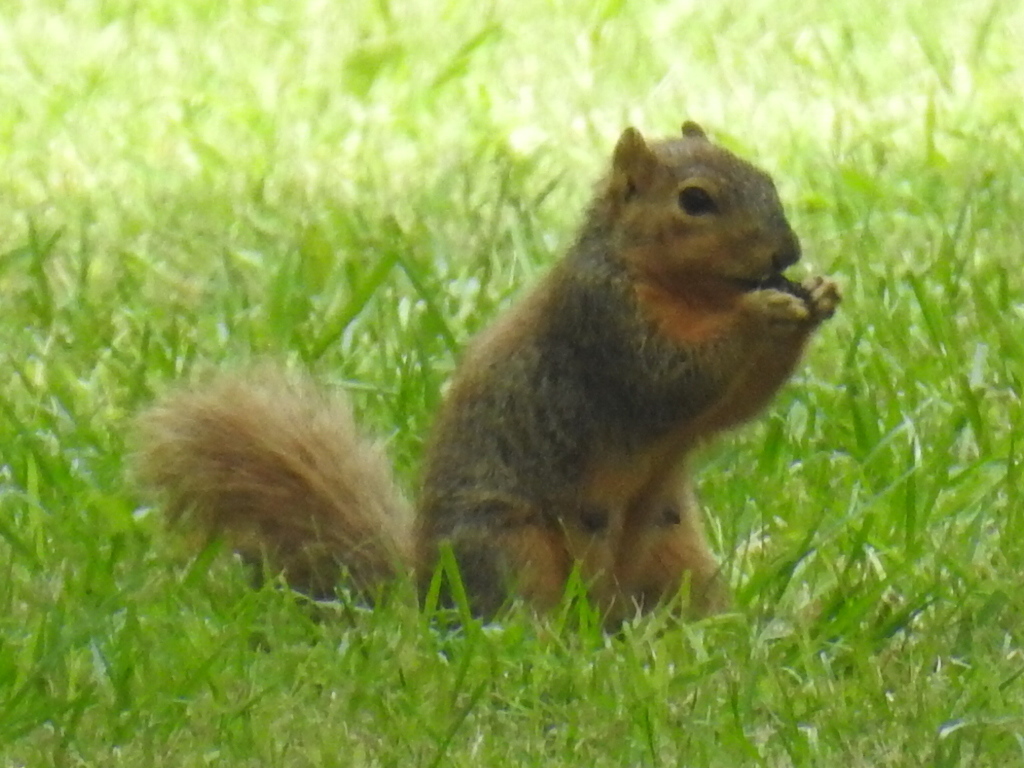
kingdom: Animalia
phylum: Chordata
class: Mammalia
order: Rodentia
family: Sciuridae
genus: Sciurus
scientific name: Sciurus niger
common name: Fox squirrel
